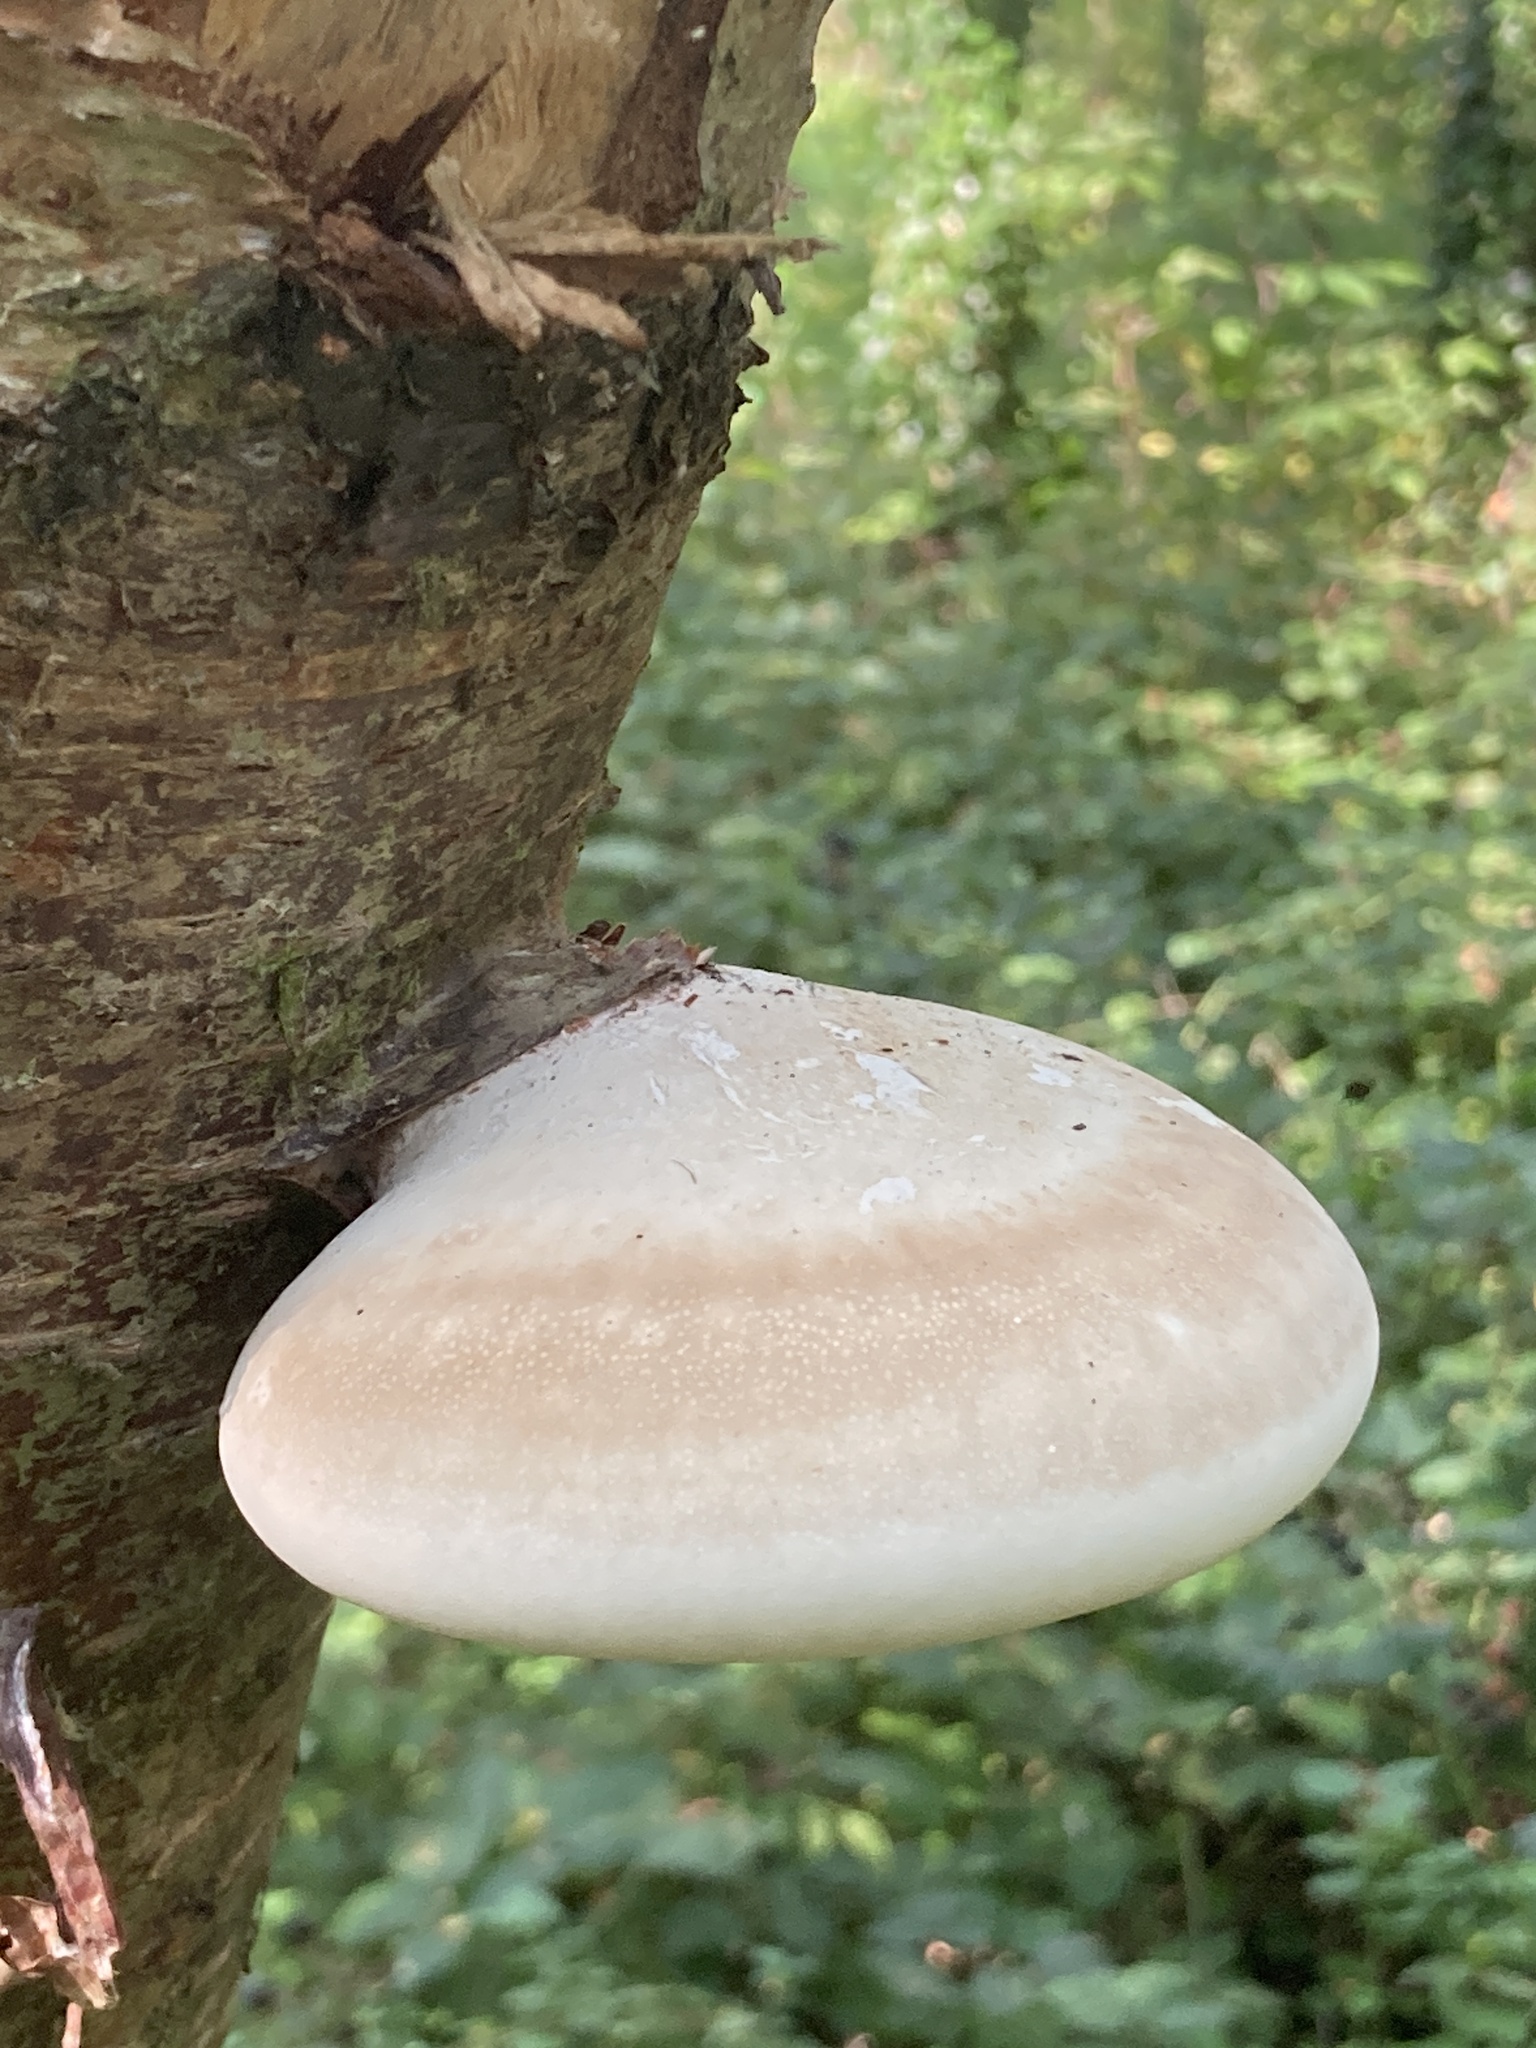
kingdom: Fungi
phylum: Basidiomycota
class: Agaricomycetes
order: Polyporales
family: Fomitopsidaceae
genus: Fomitopsis
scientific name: Fomitopsis betulina
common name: Birch polypore
